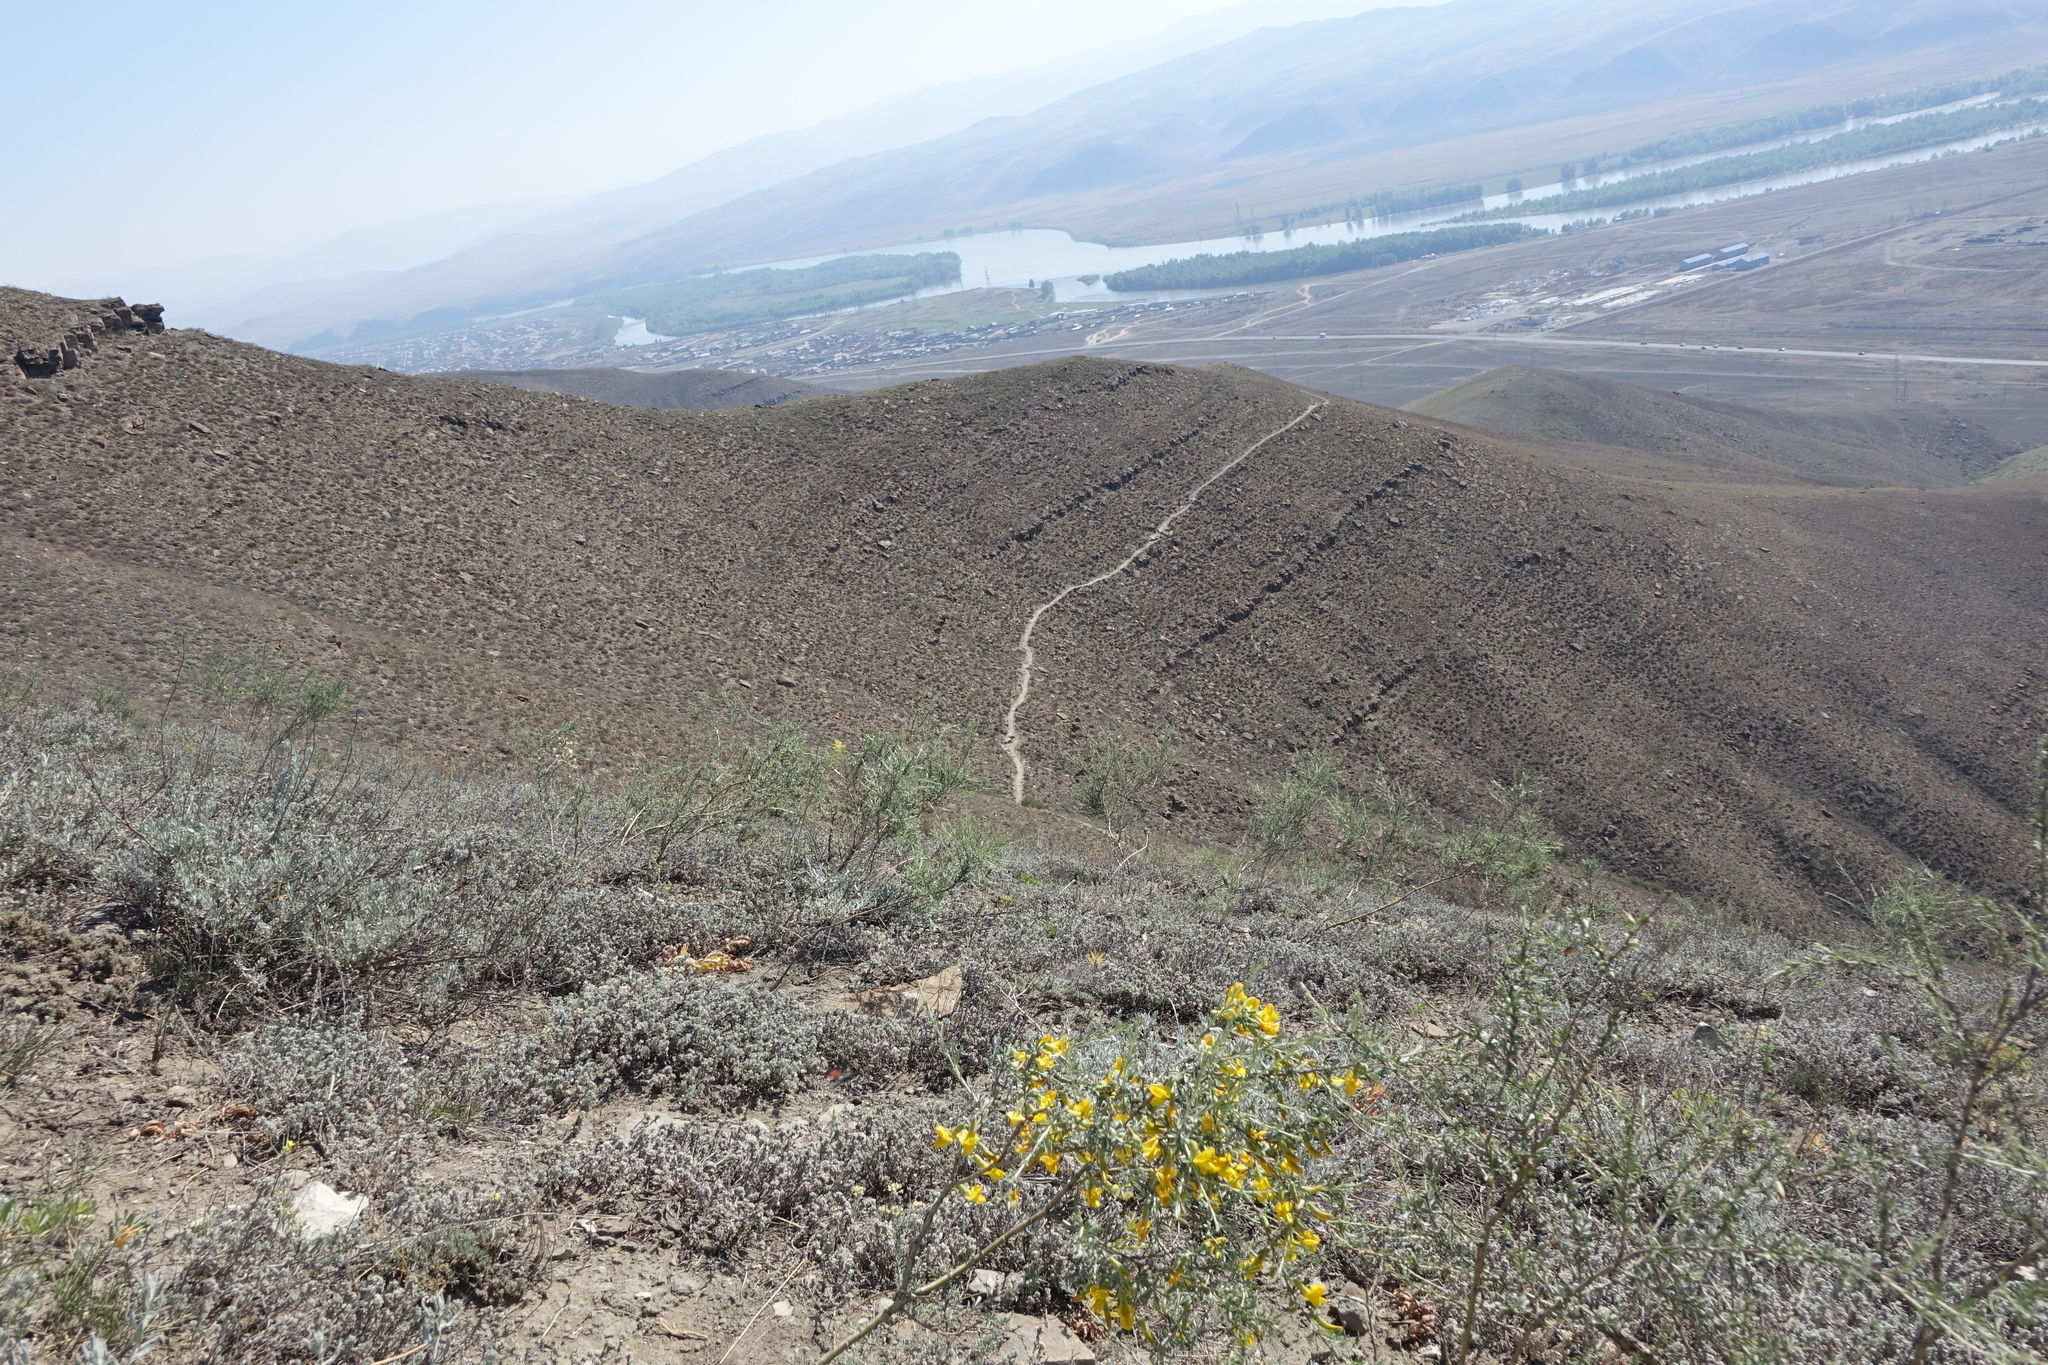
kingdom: Plantae
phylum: Tracheophyta
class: Magnoliopsida
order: Fabales
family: Fabaceae
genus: Caragana
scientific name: Caragana pygmaea
